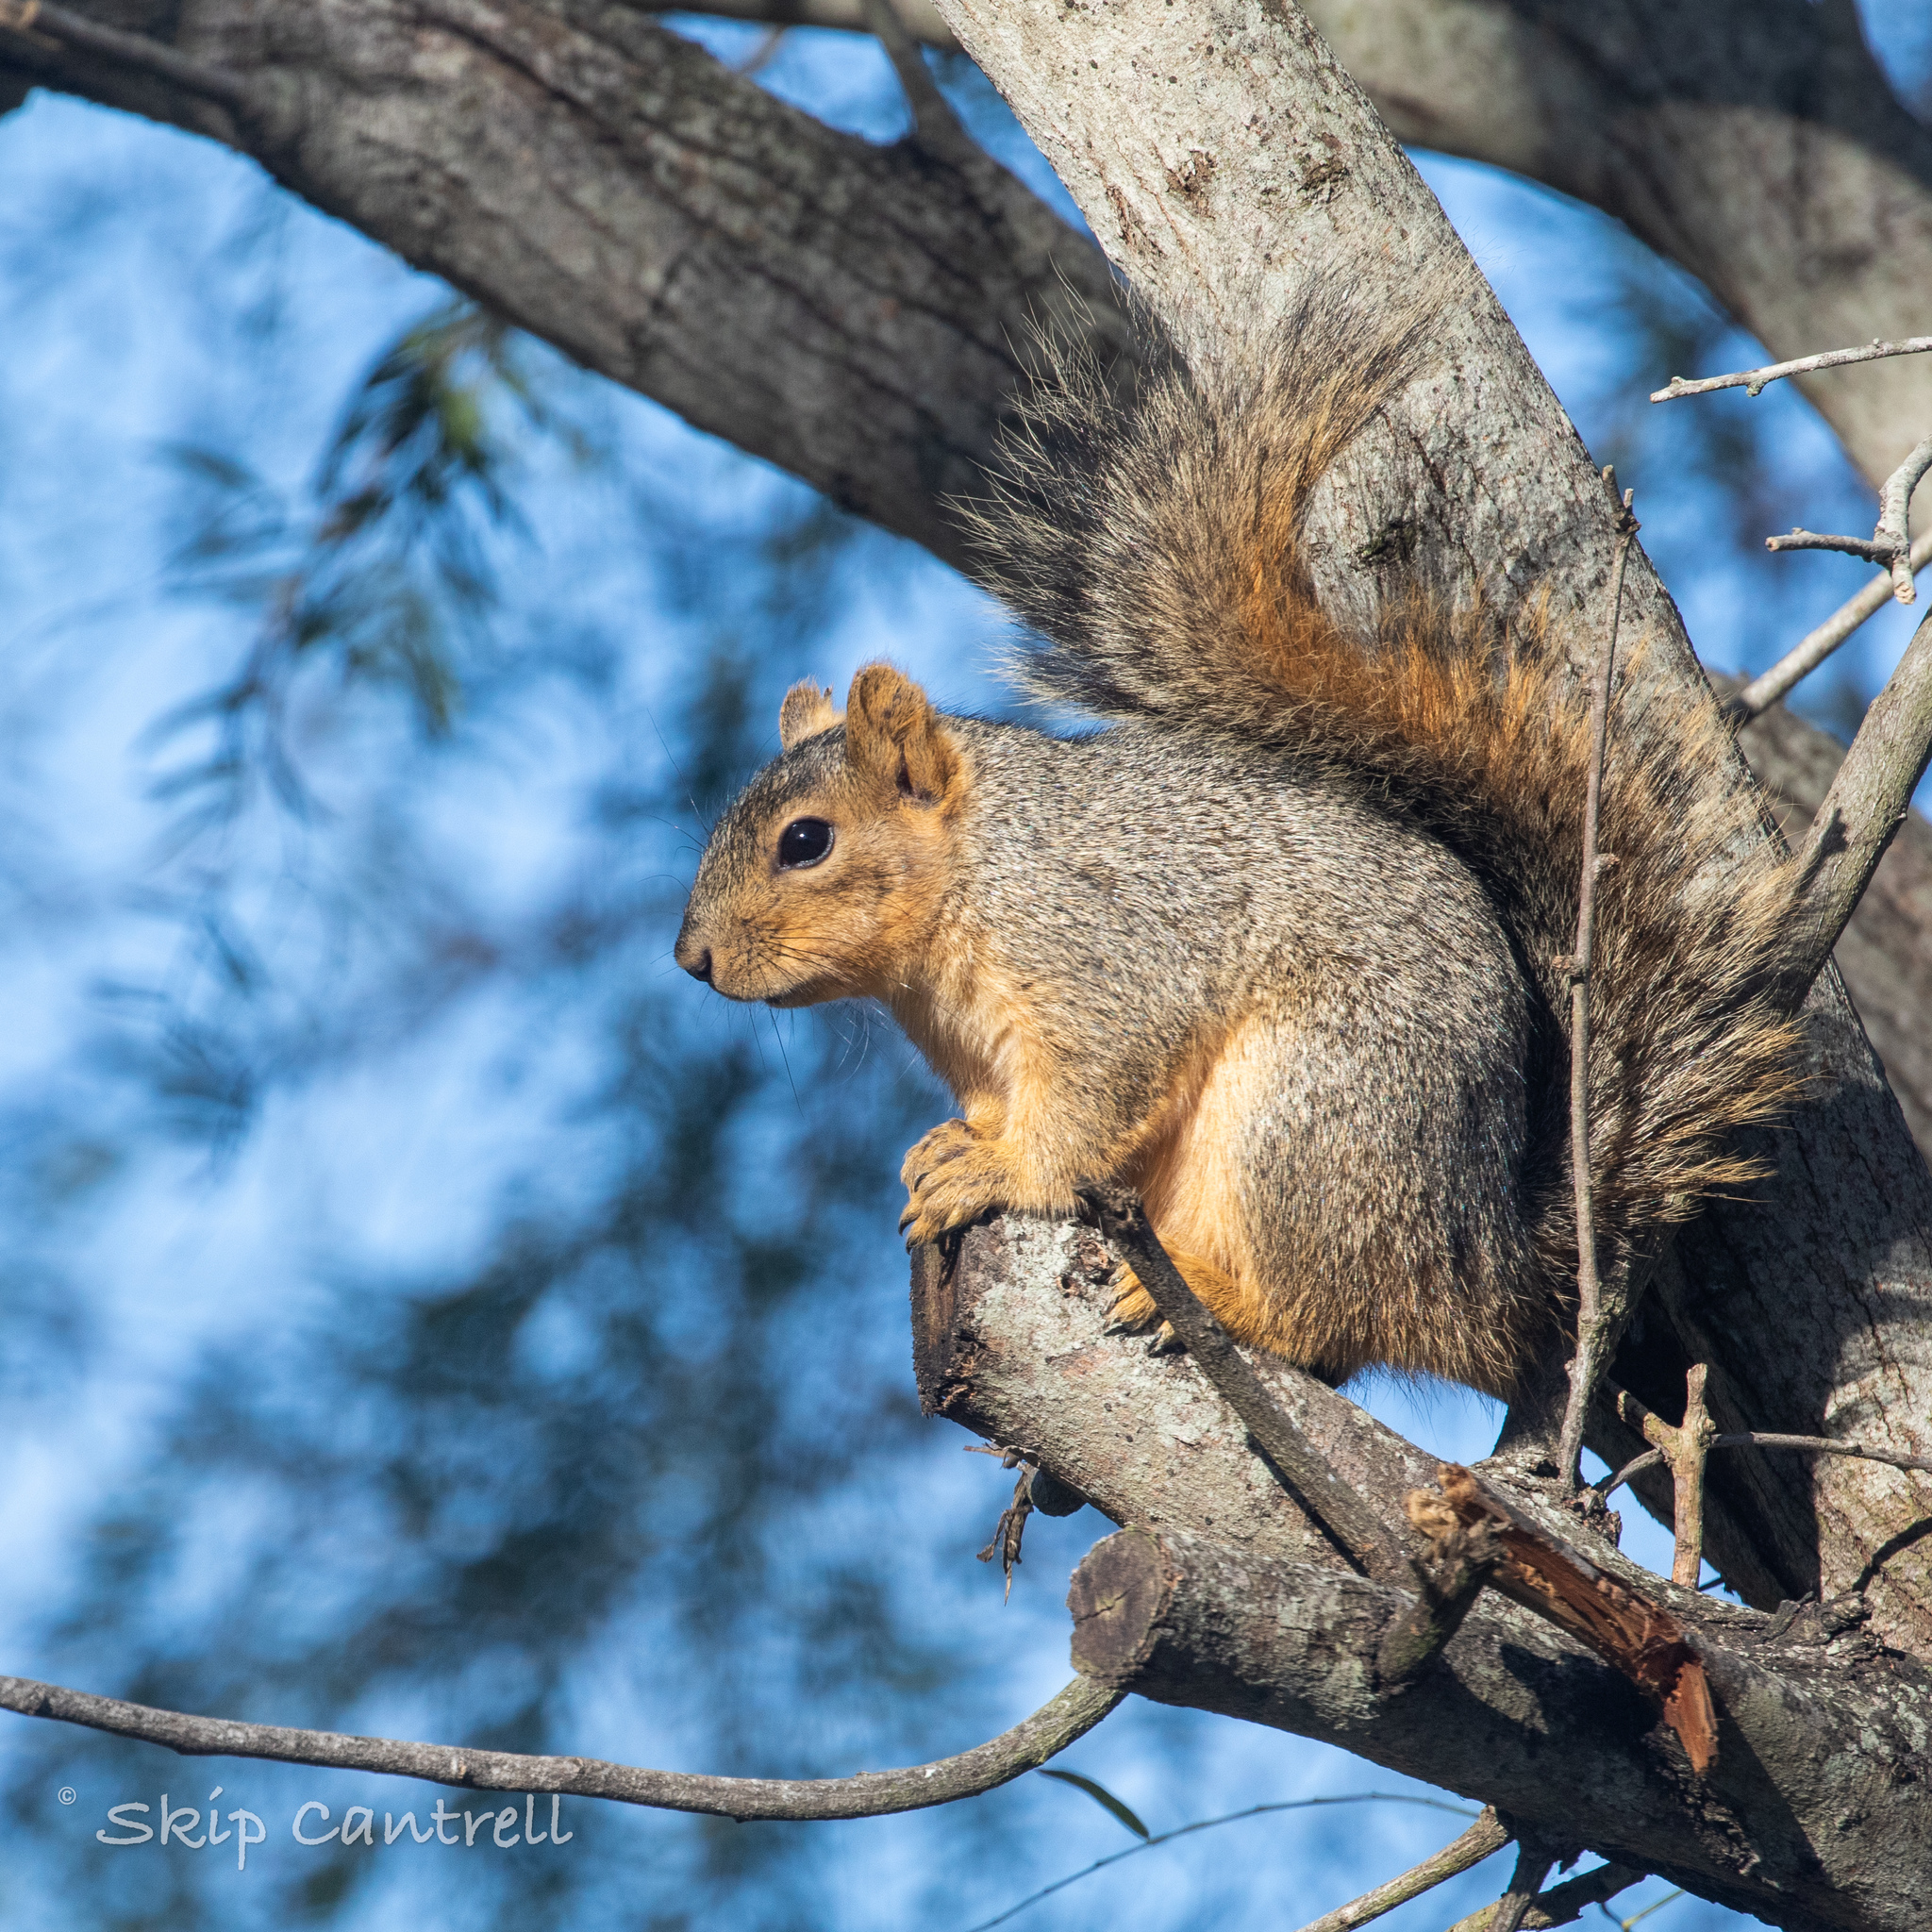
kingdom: Animalia
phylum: Chordata
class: Mammalia
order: Rodentia
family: Sciuridae
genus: Sciurus
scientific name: Sciurus niger
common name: Fox squirrel
